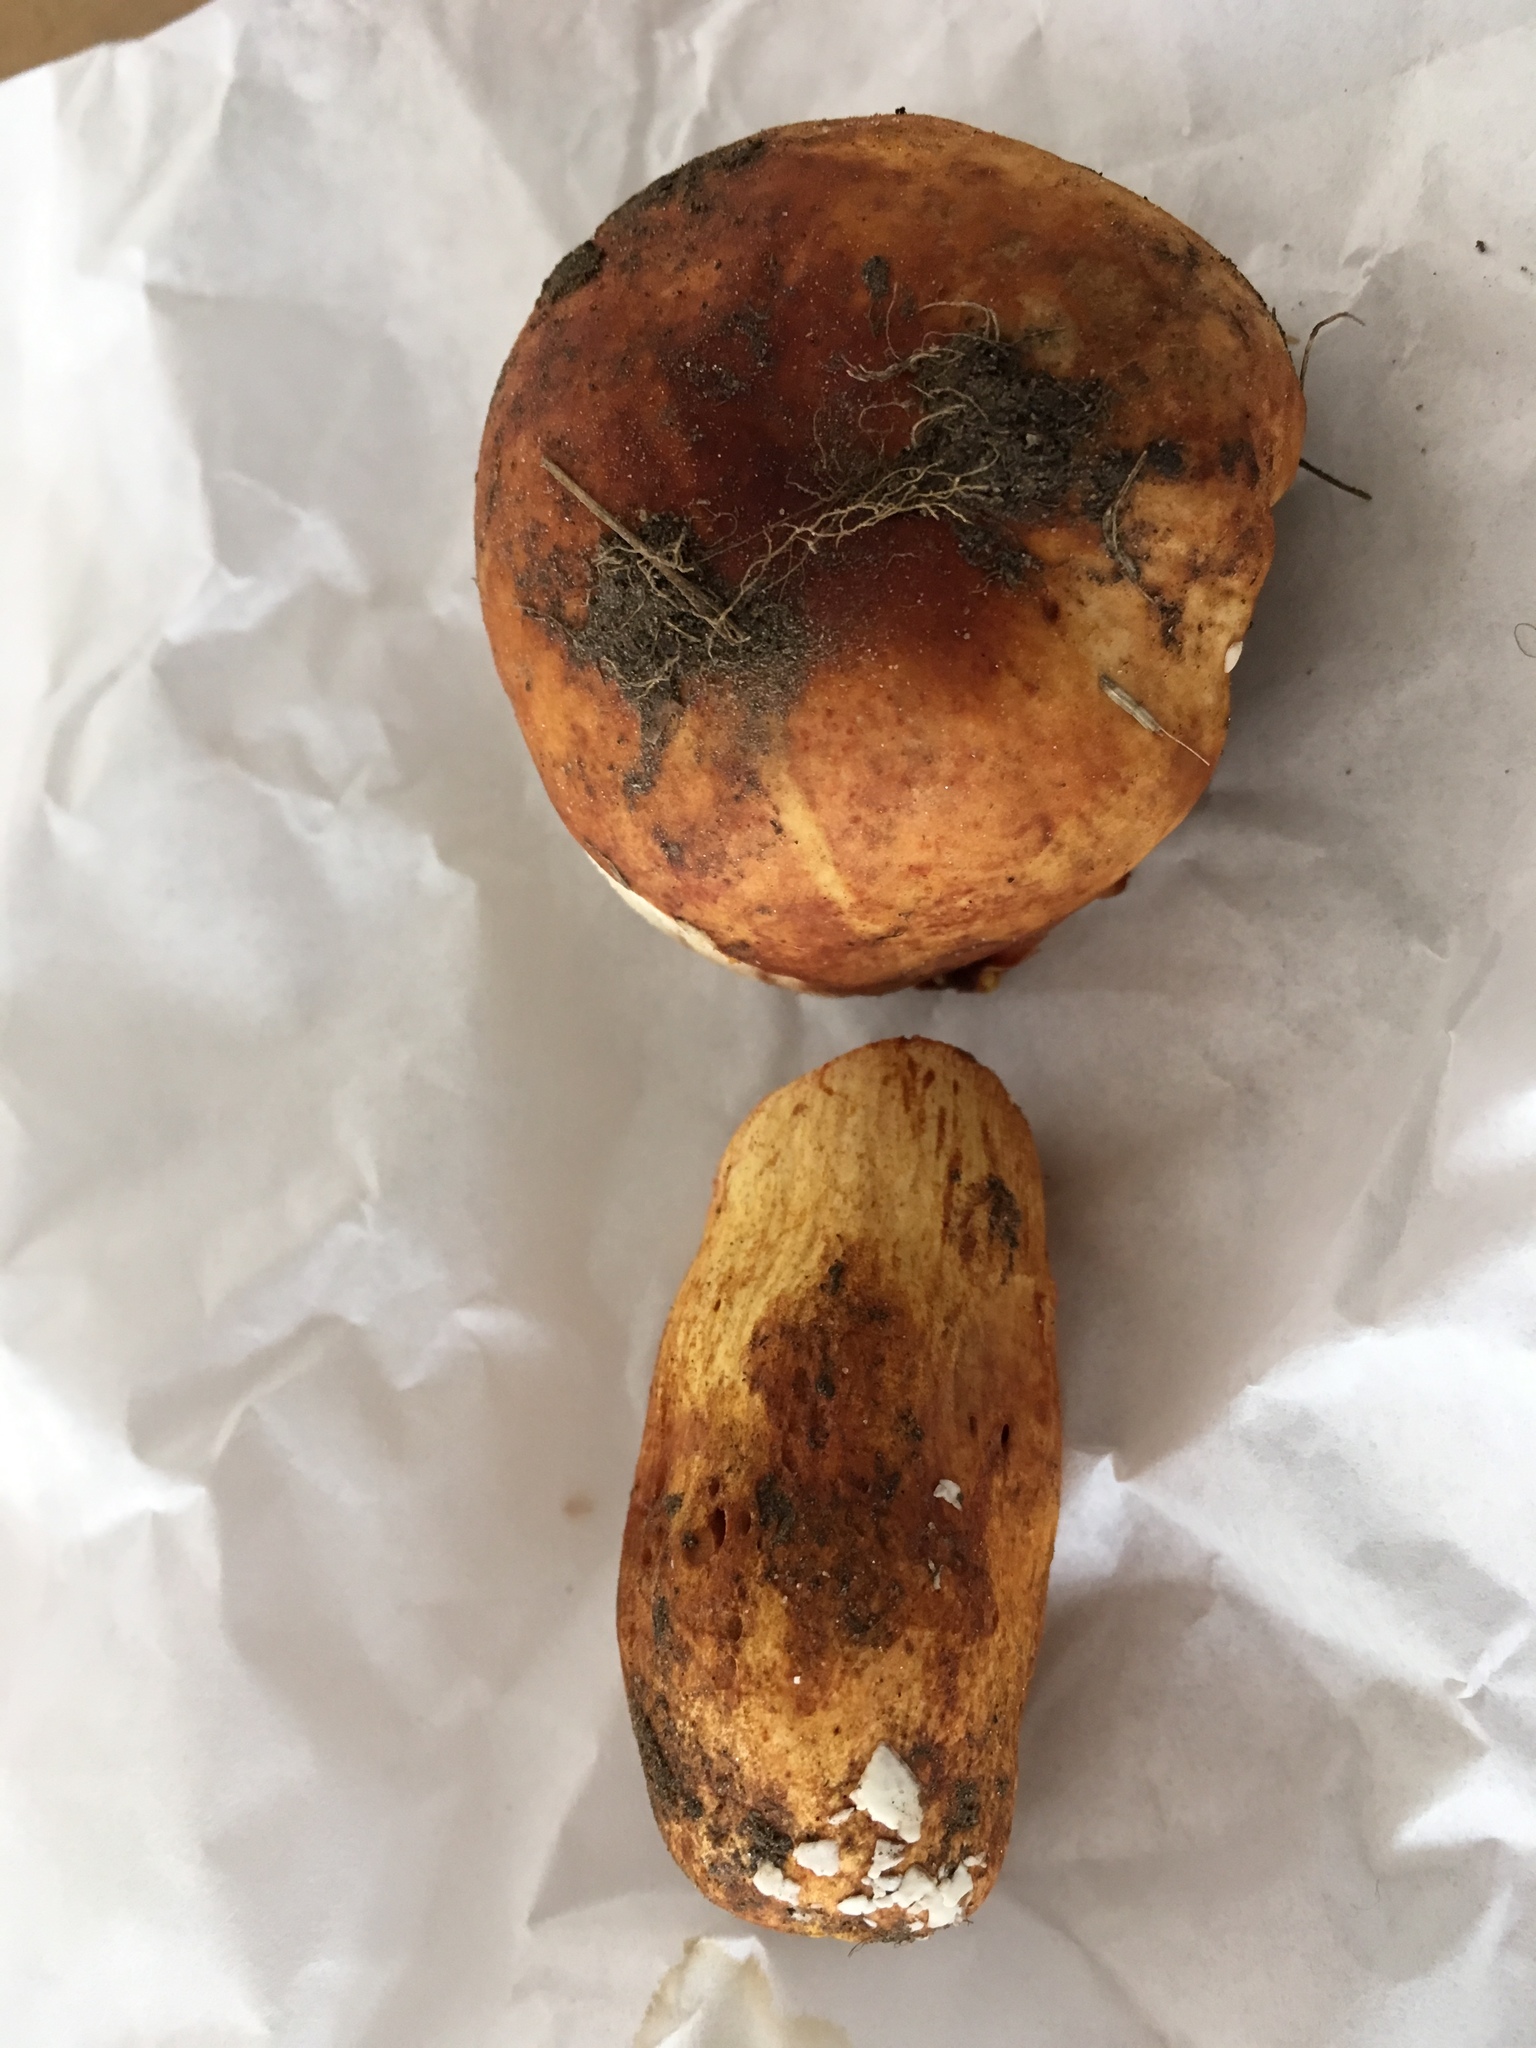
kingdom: Fungi
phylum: Basidiomycota
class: Agaricomycetes
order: Russulales
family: Russulaceae
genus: Russula
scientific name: Russula mutabilis
